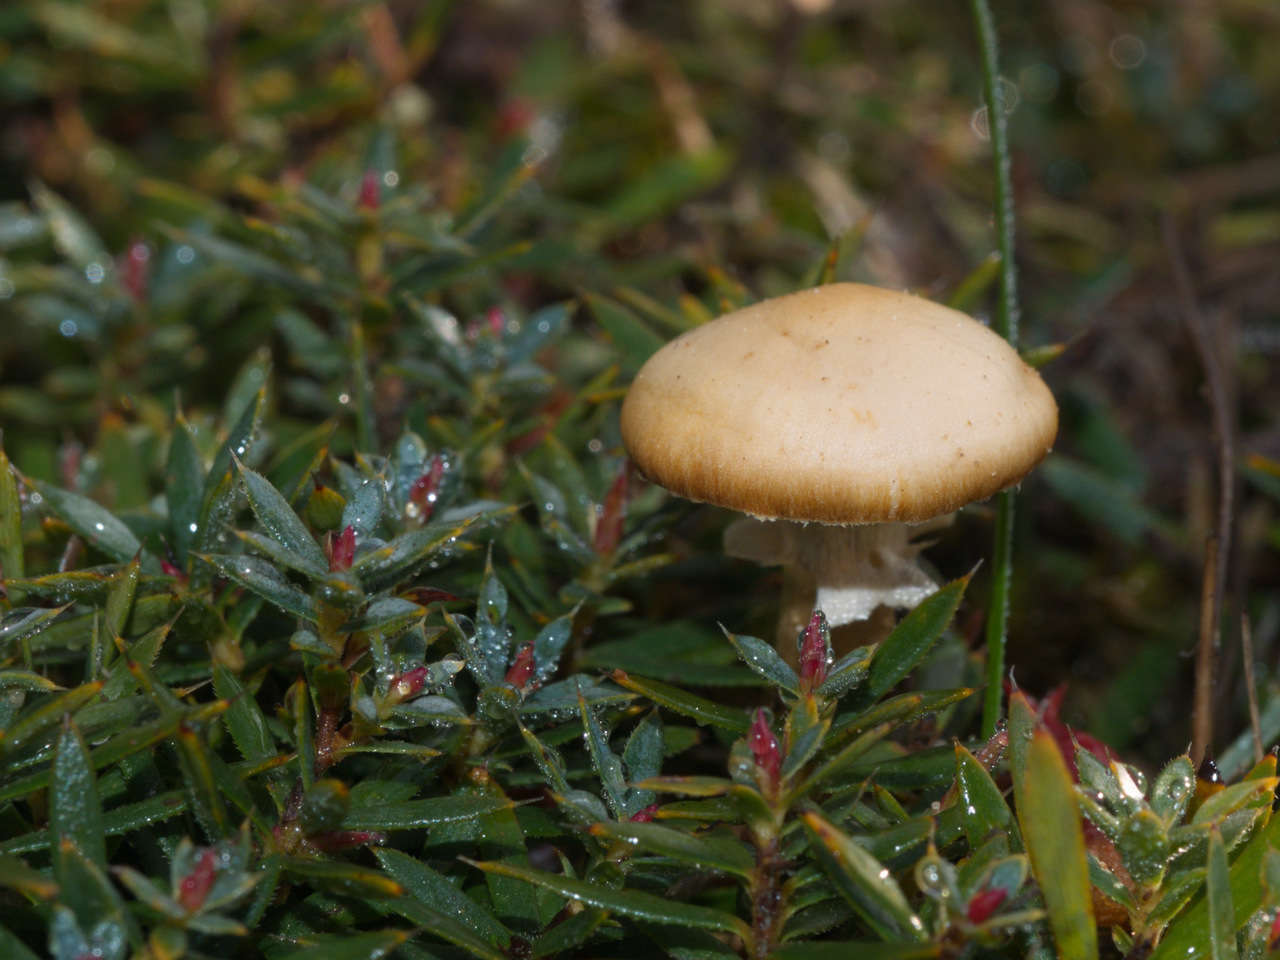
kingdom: Plantae
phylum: Tracheophyta
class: Magnoliopsida
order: Ericales
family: Ericaceae
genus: Styphelia
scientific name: Styphelia humifusa
